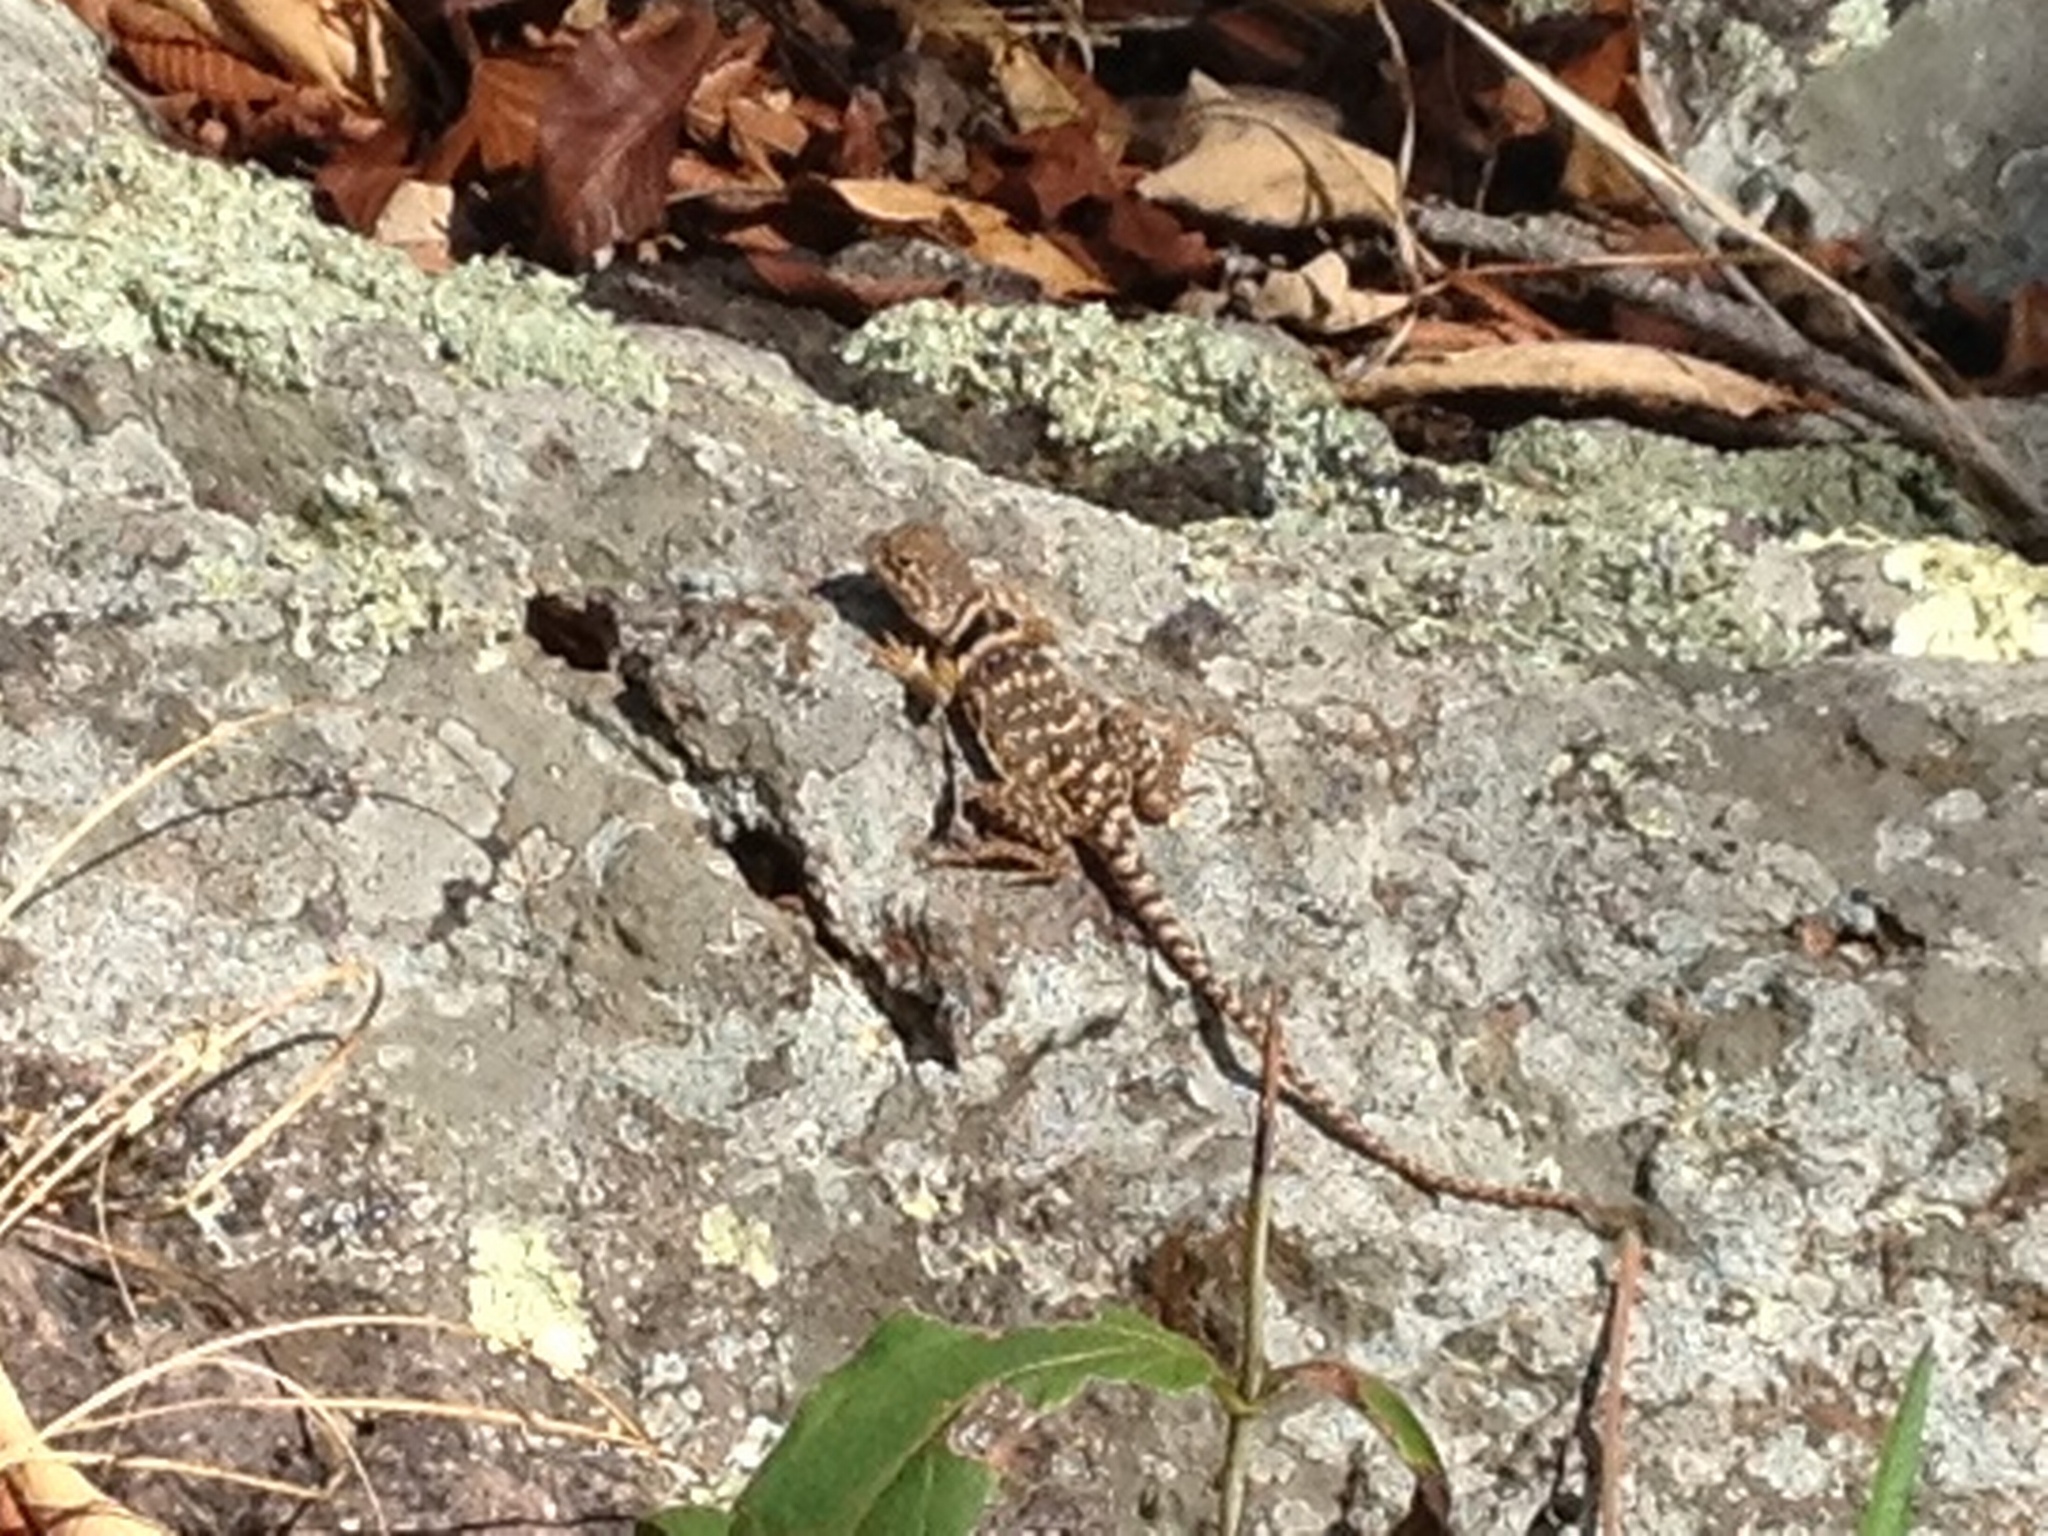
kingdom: Animalia
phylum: Chordata
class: Squamata
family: Crotaphytidae
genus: Crotaphytus
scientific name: Crotaphytus collaris
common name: Collared lizard
